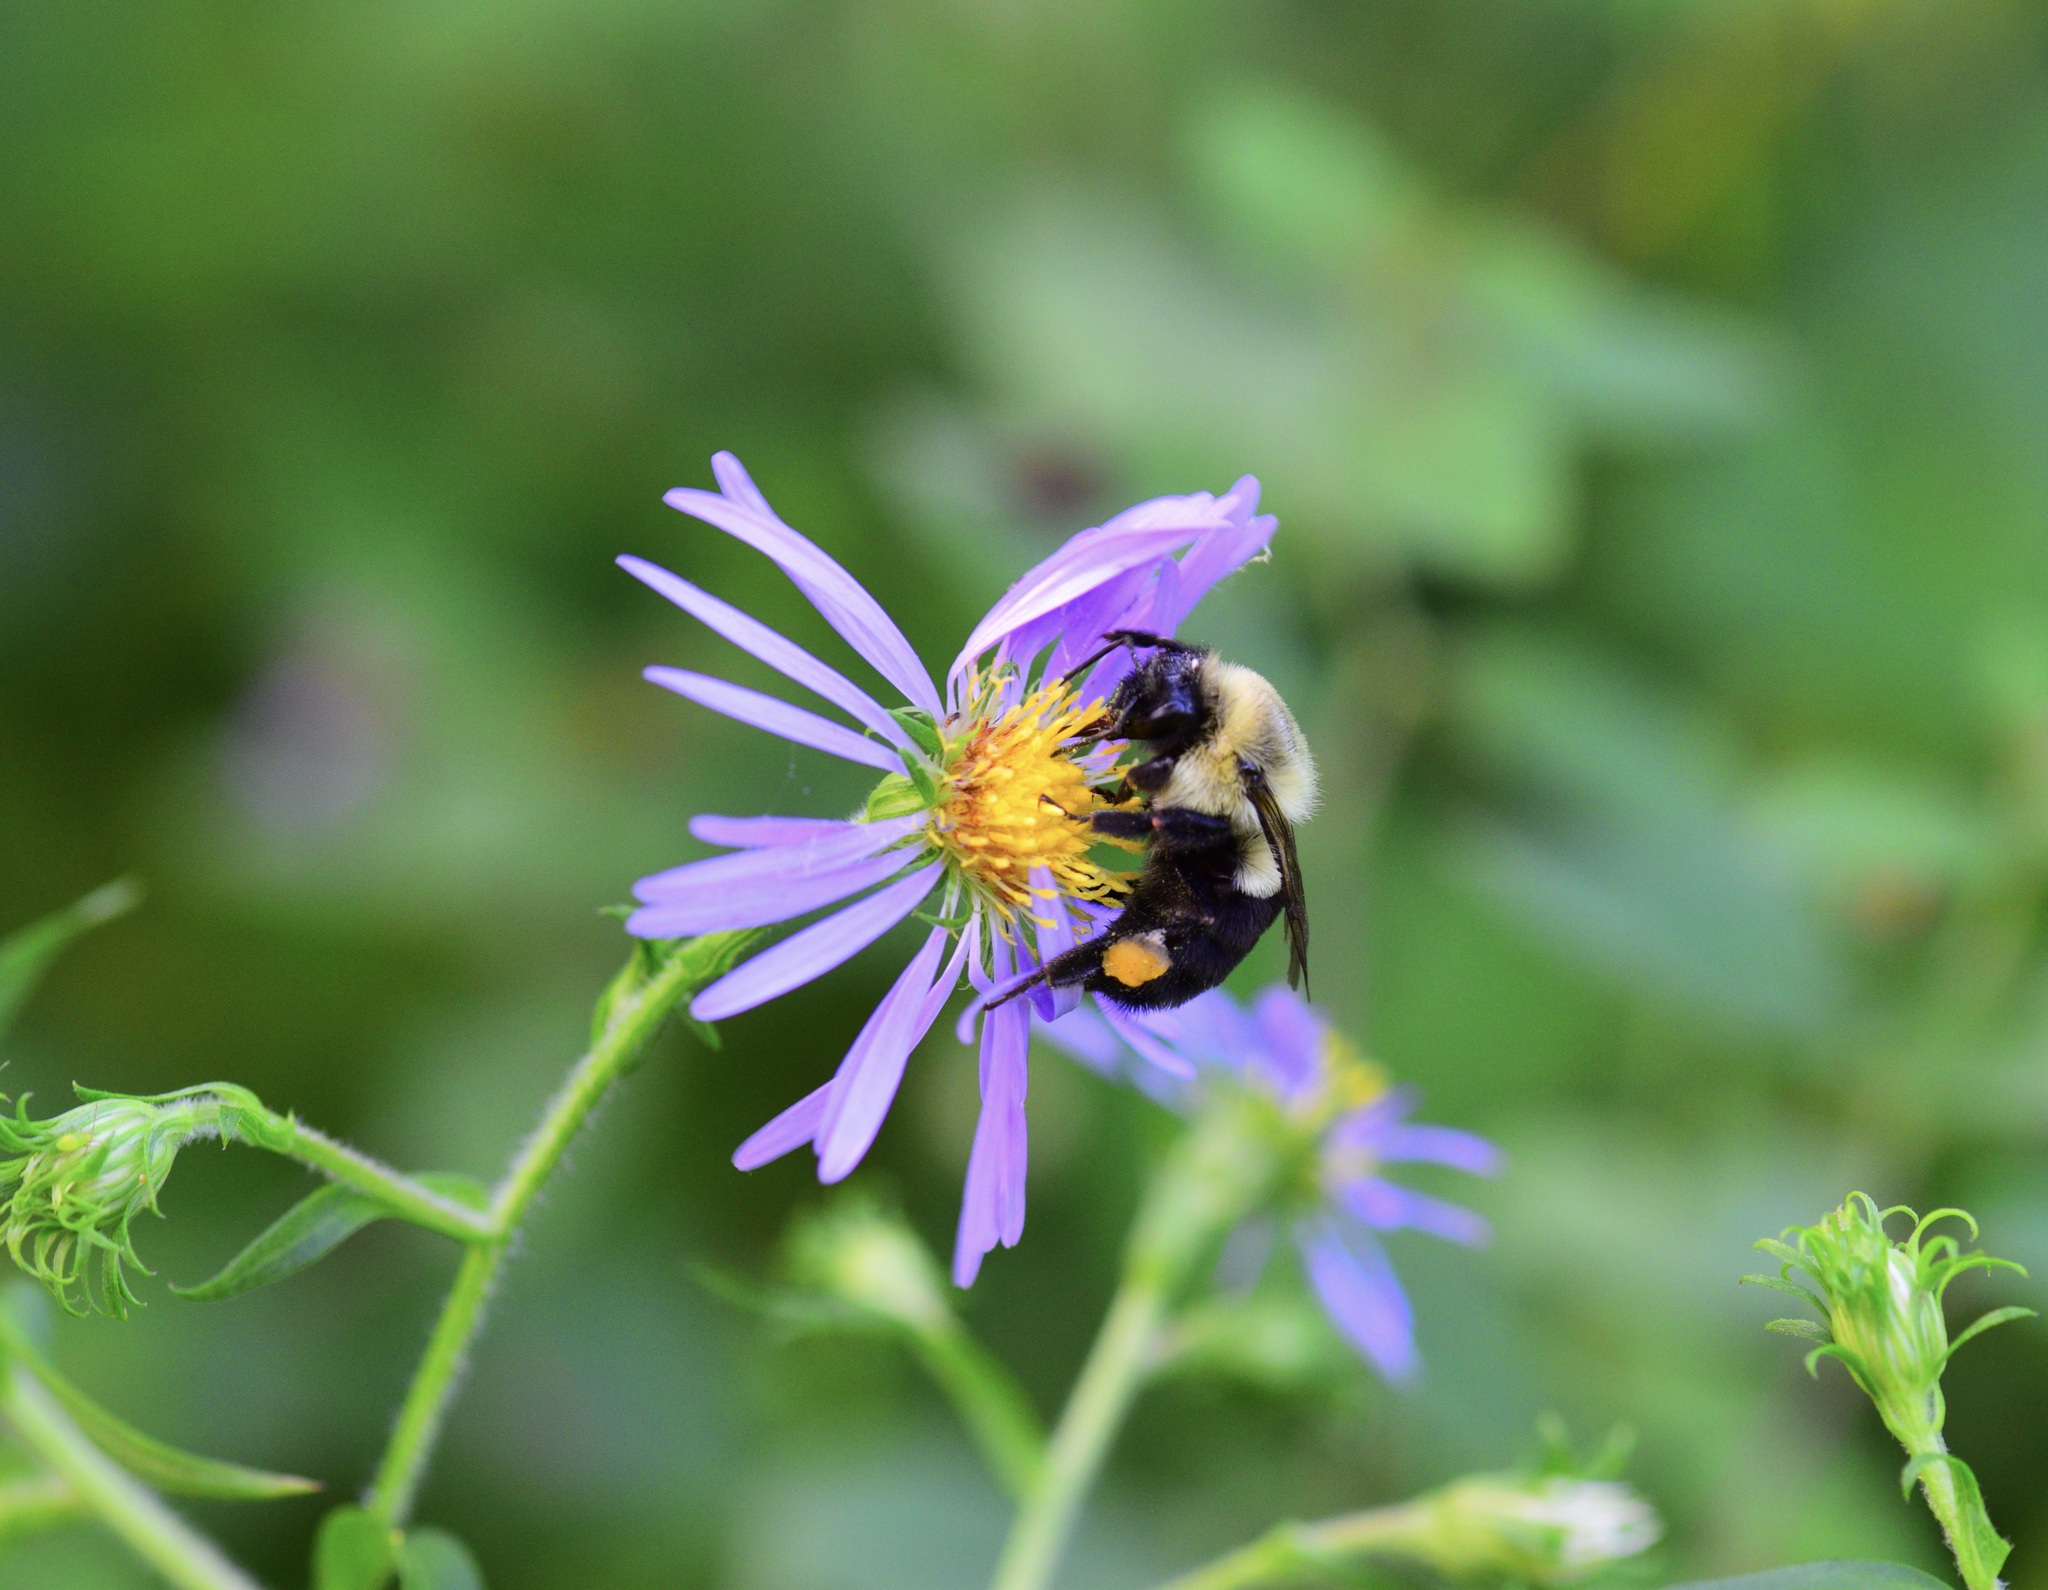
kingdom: Animalia
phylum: Arthropoda
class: Insecta
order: Hymenoptera
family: Apidae
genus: Bombus
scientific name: Bombus impatiens
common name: Common eastern bumble bee
